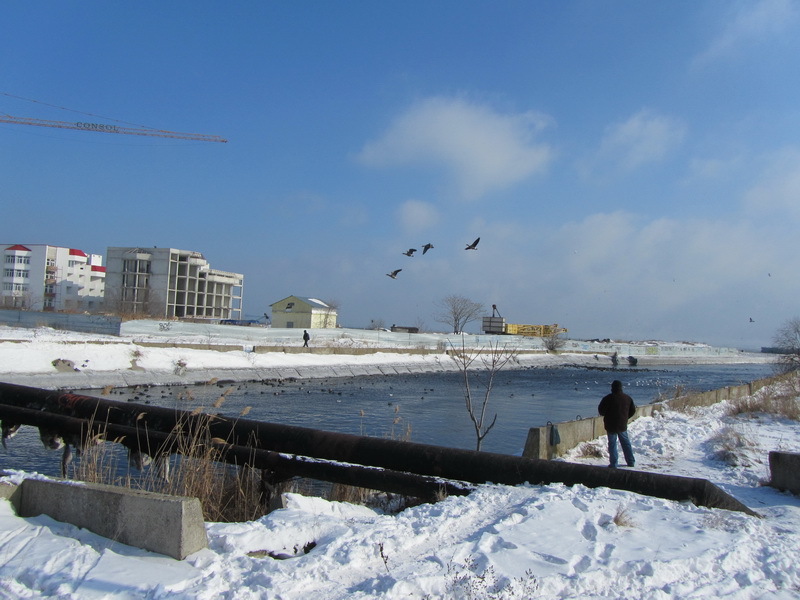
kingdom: Animalia
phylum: Chordata
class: Aves
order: Anseriformes
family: Anatidae
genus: Anser
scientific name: Anser albifrons
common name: Greater white-fronted goose
